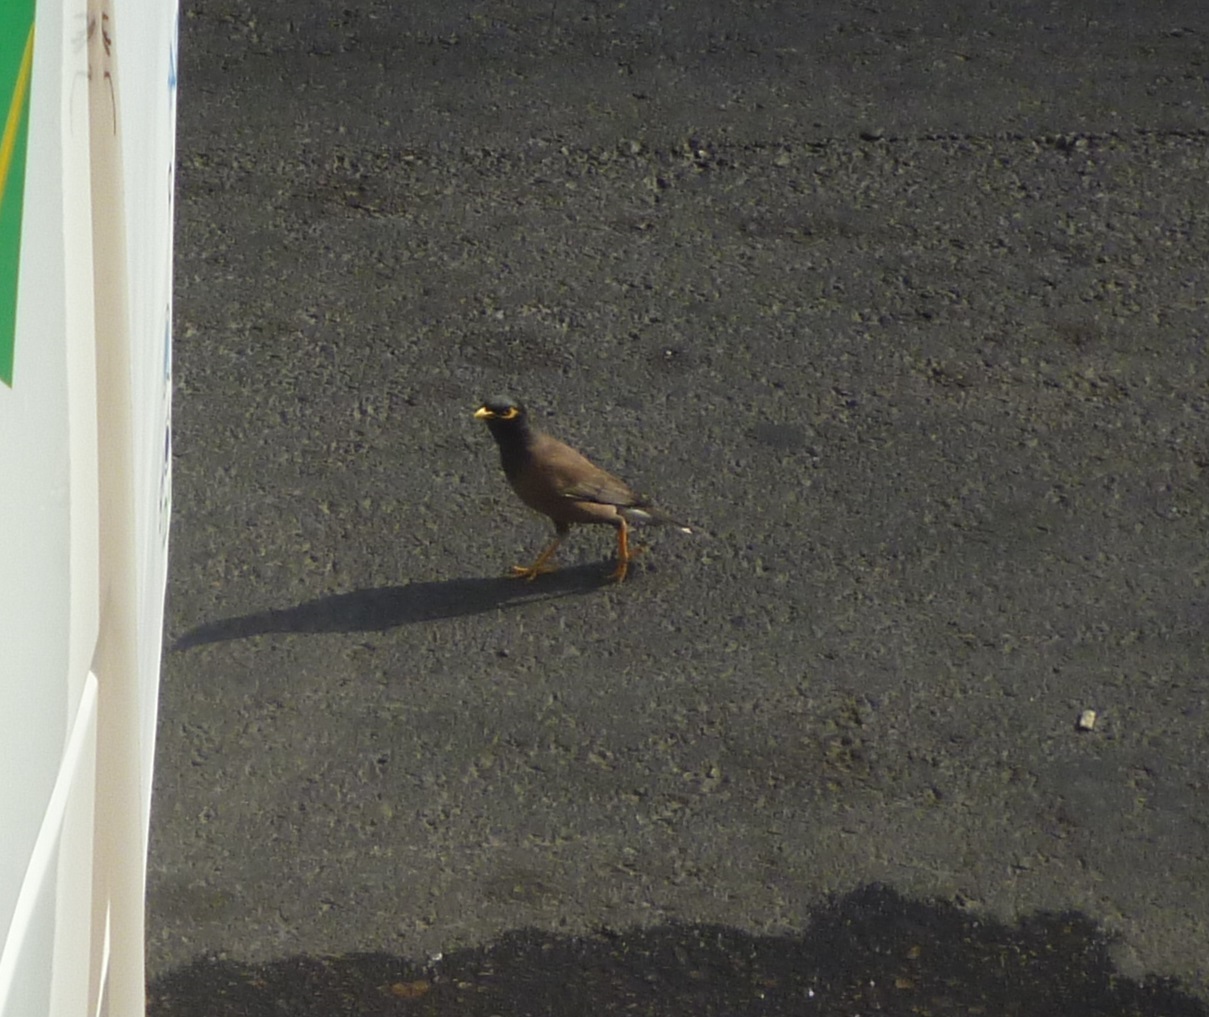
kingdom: Animalia
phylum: Chordata
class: Aves
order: Passeriformes
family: Sturnidae
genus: Acridotheres
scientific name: Acridotheres tristis
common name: Common myna
